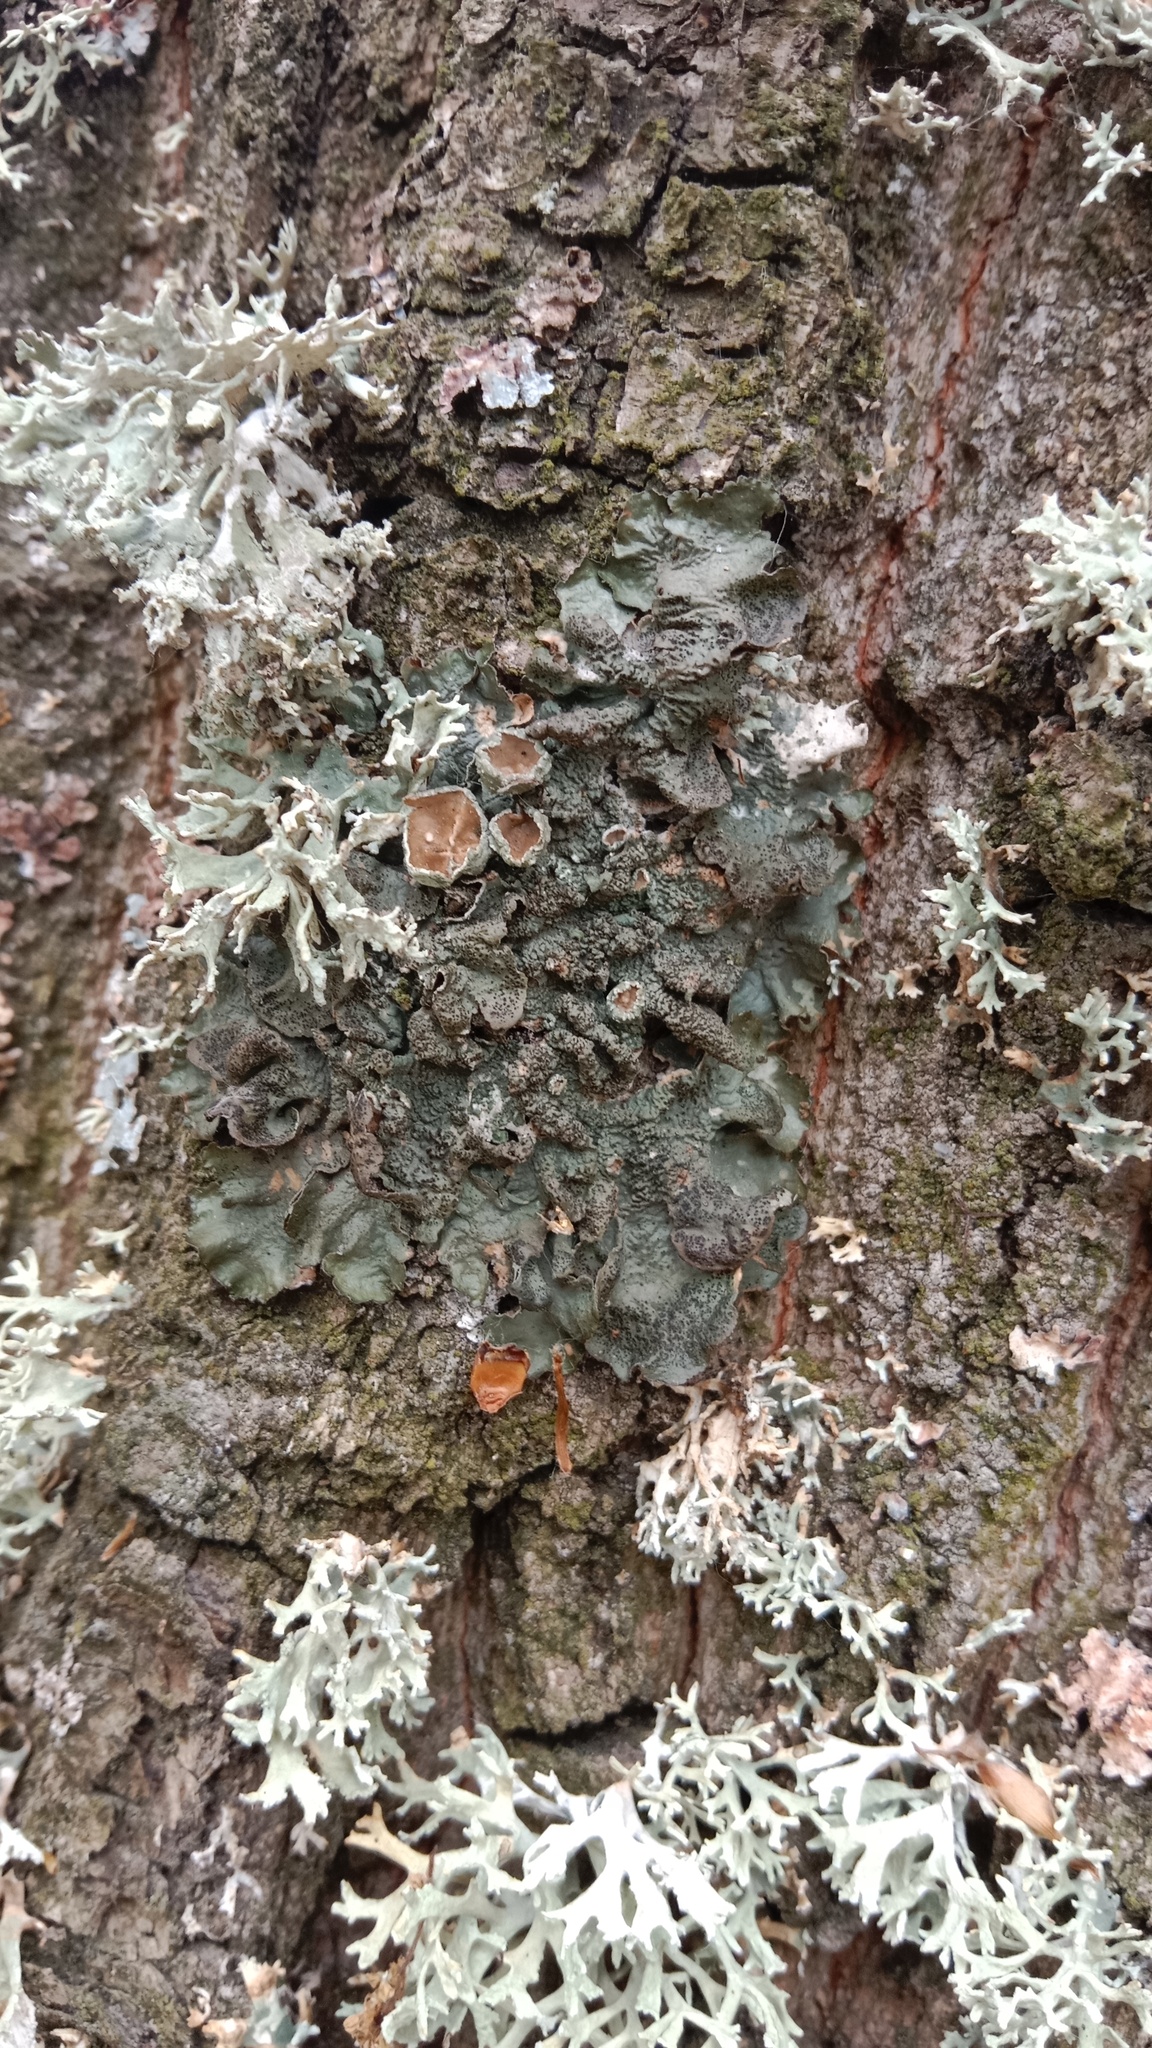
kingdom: Fungi
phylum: Ascomycota
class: Lecanoromycetes
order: Lecanorales
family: Parmeliaceae
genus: Pleurosticta
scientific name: Pleurosticta acetabulum
